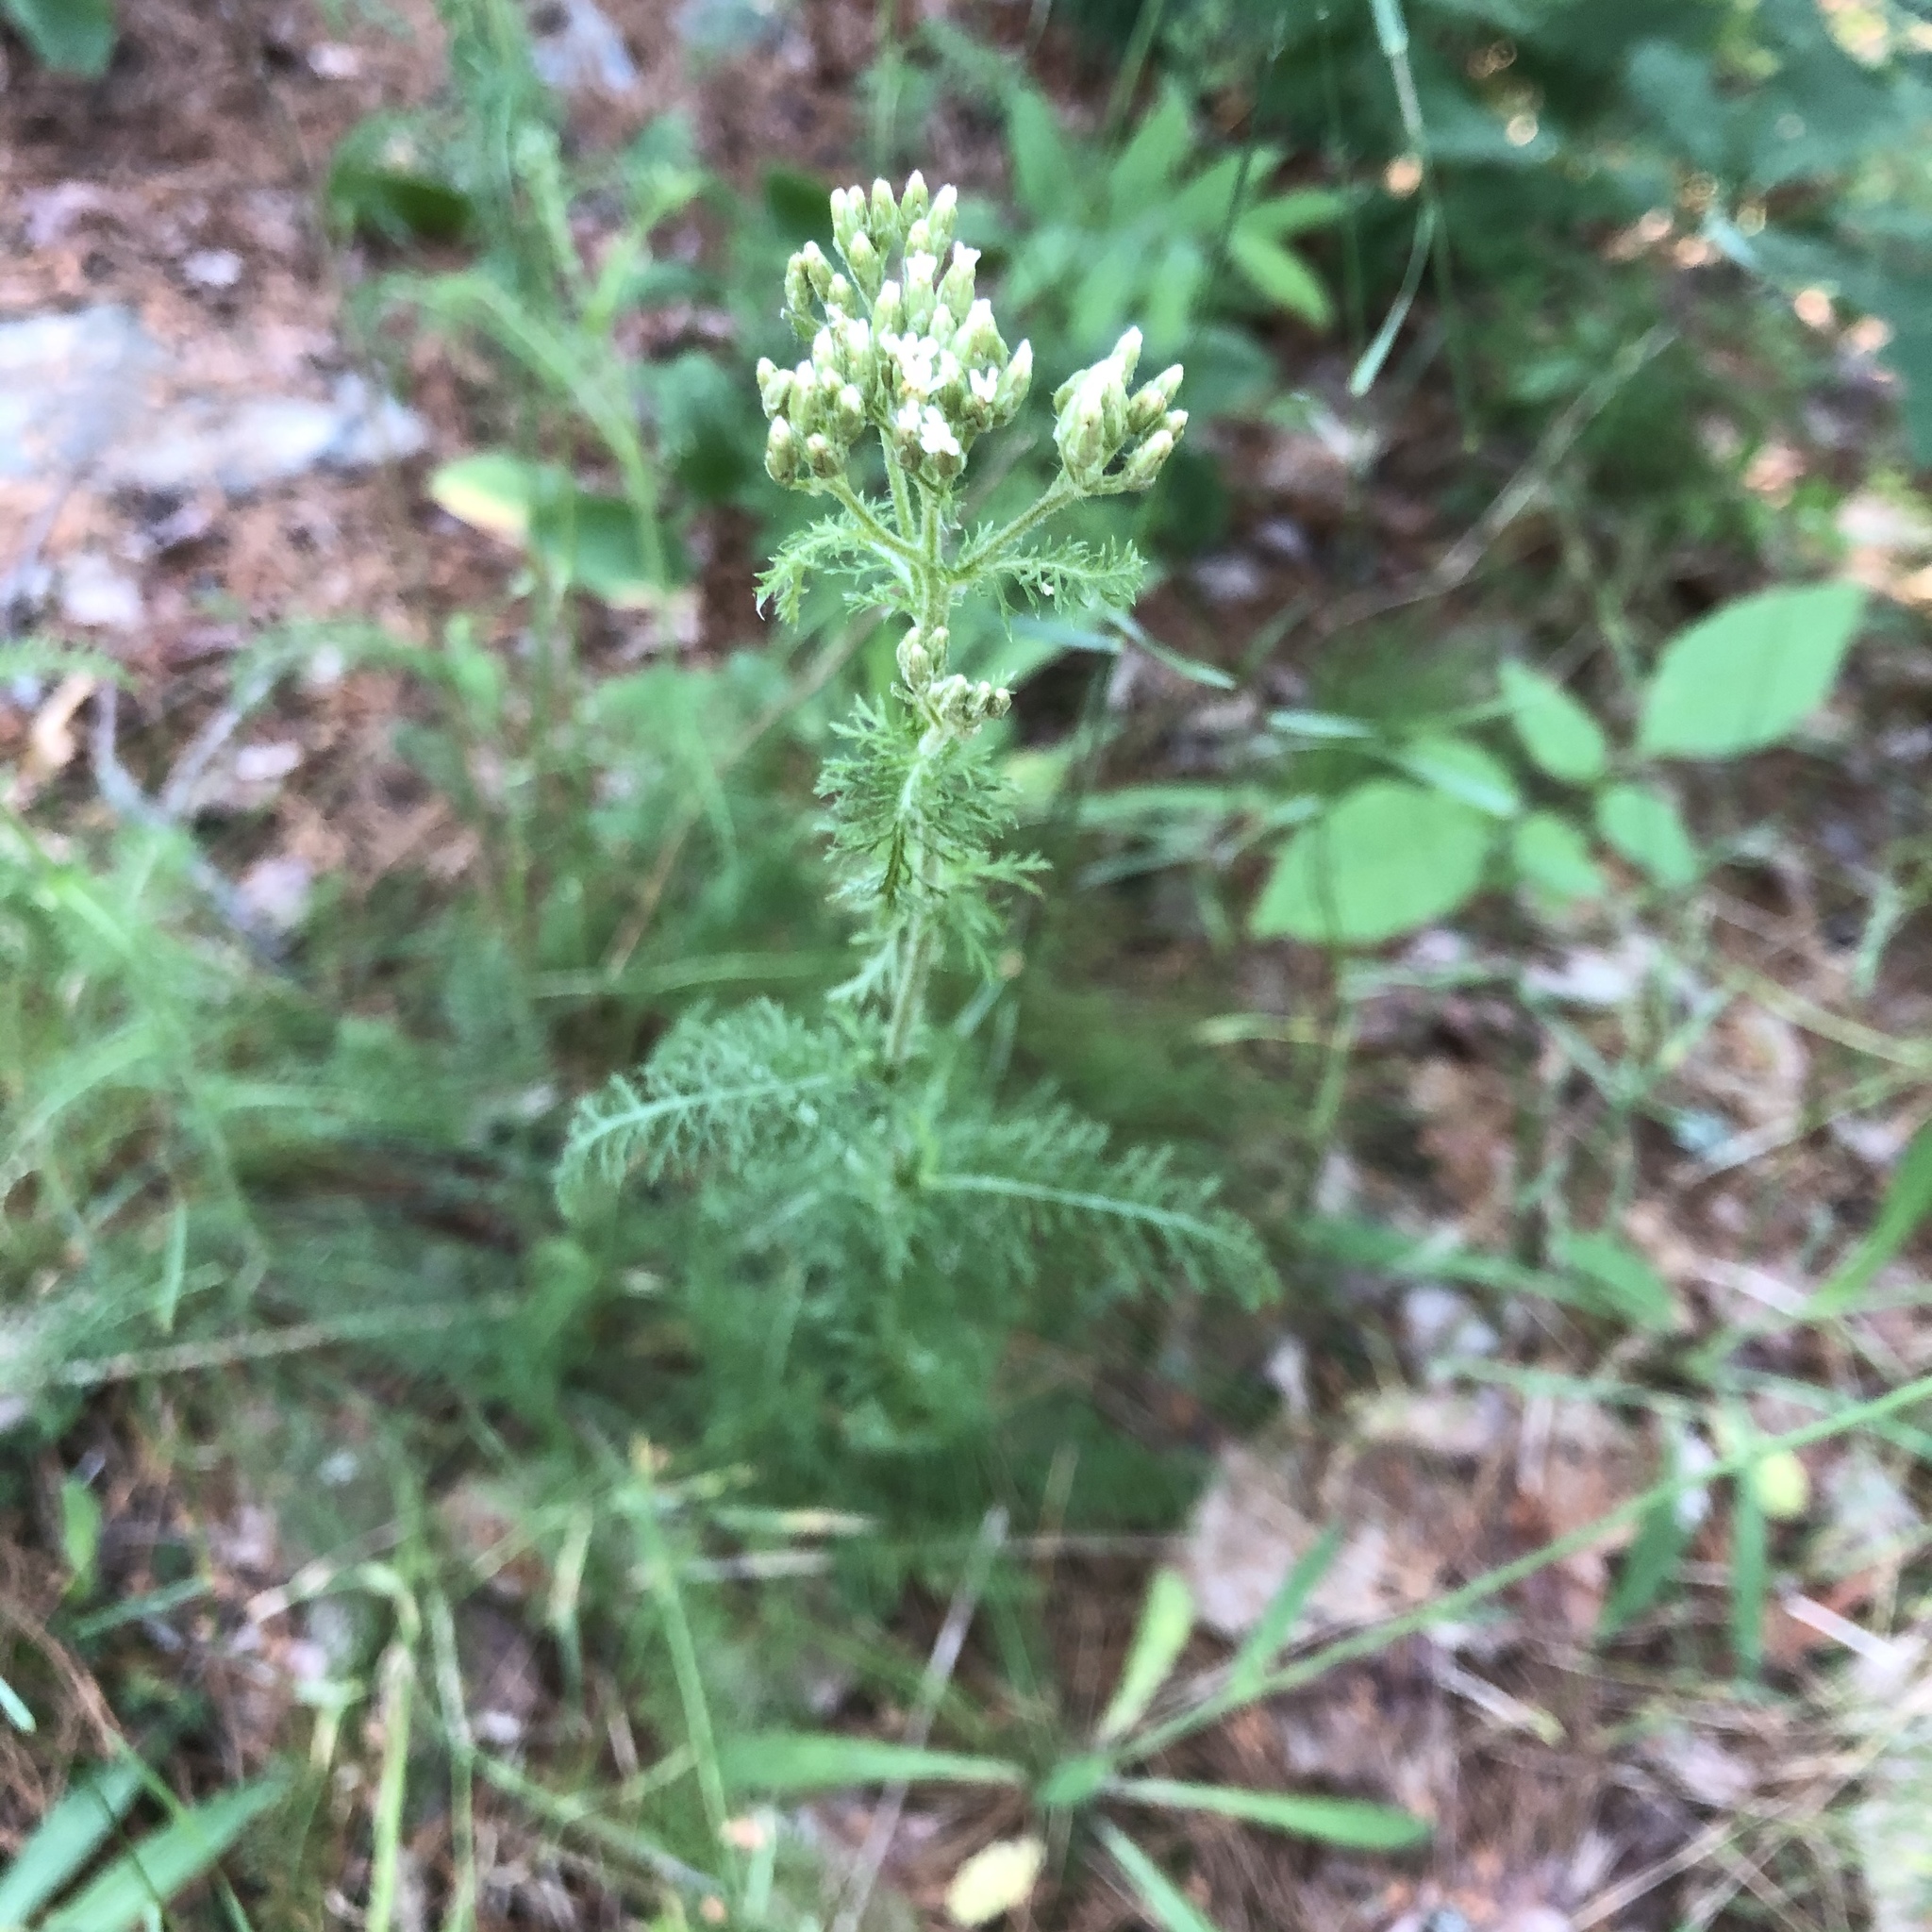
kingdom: Plantae
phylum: Tracheophyta
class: Magnoliopsida
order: Asterales
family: Asteraceae
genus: Achillea
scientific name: Achillea millefolium
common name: Yarrow
